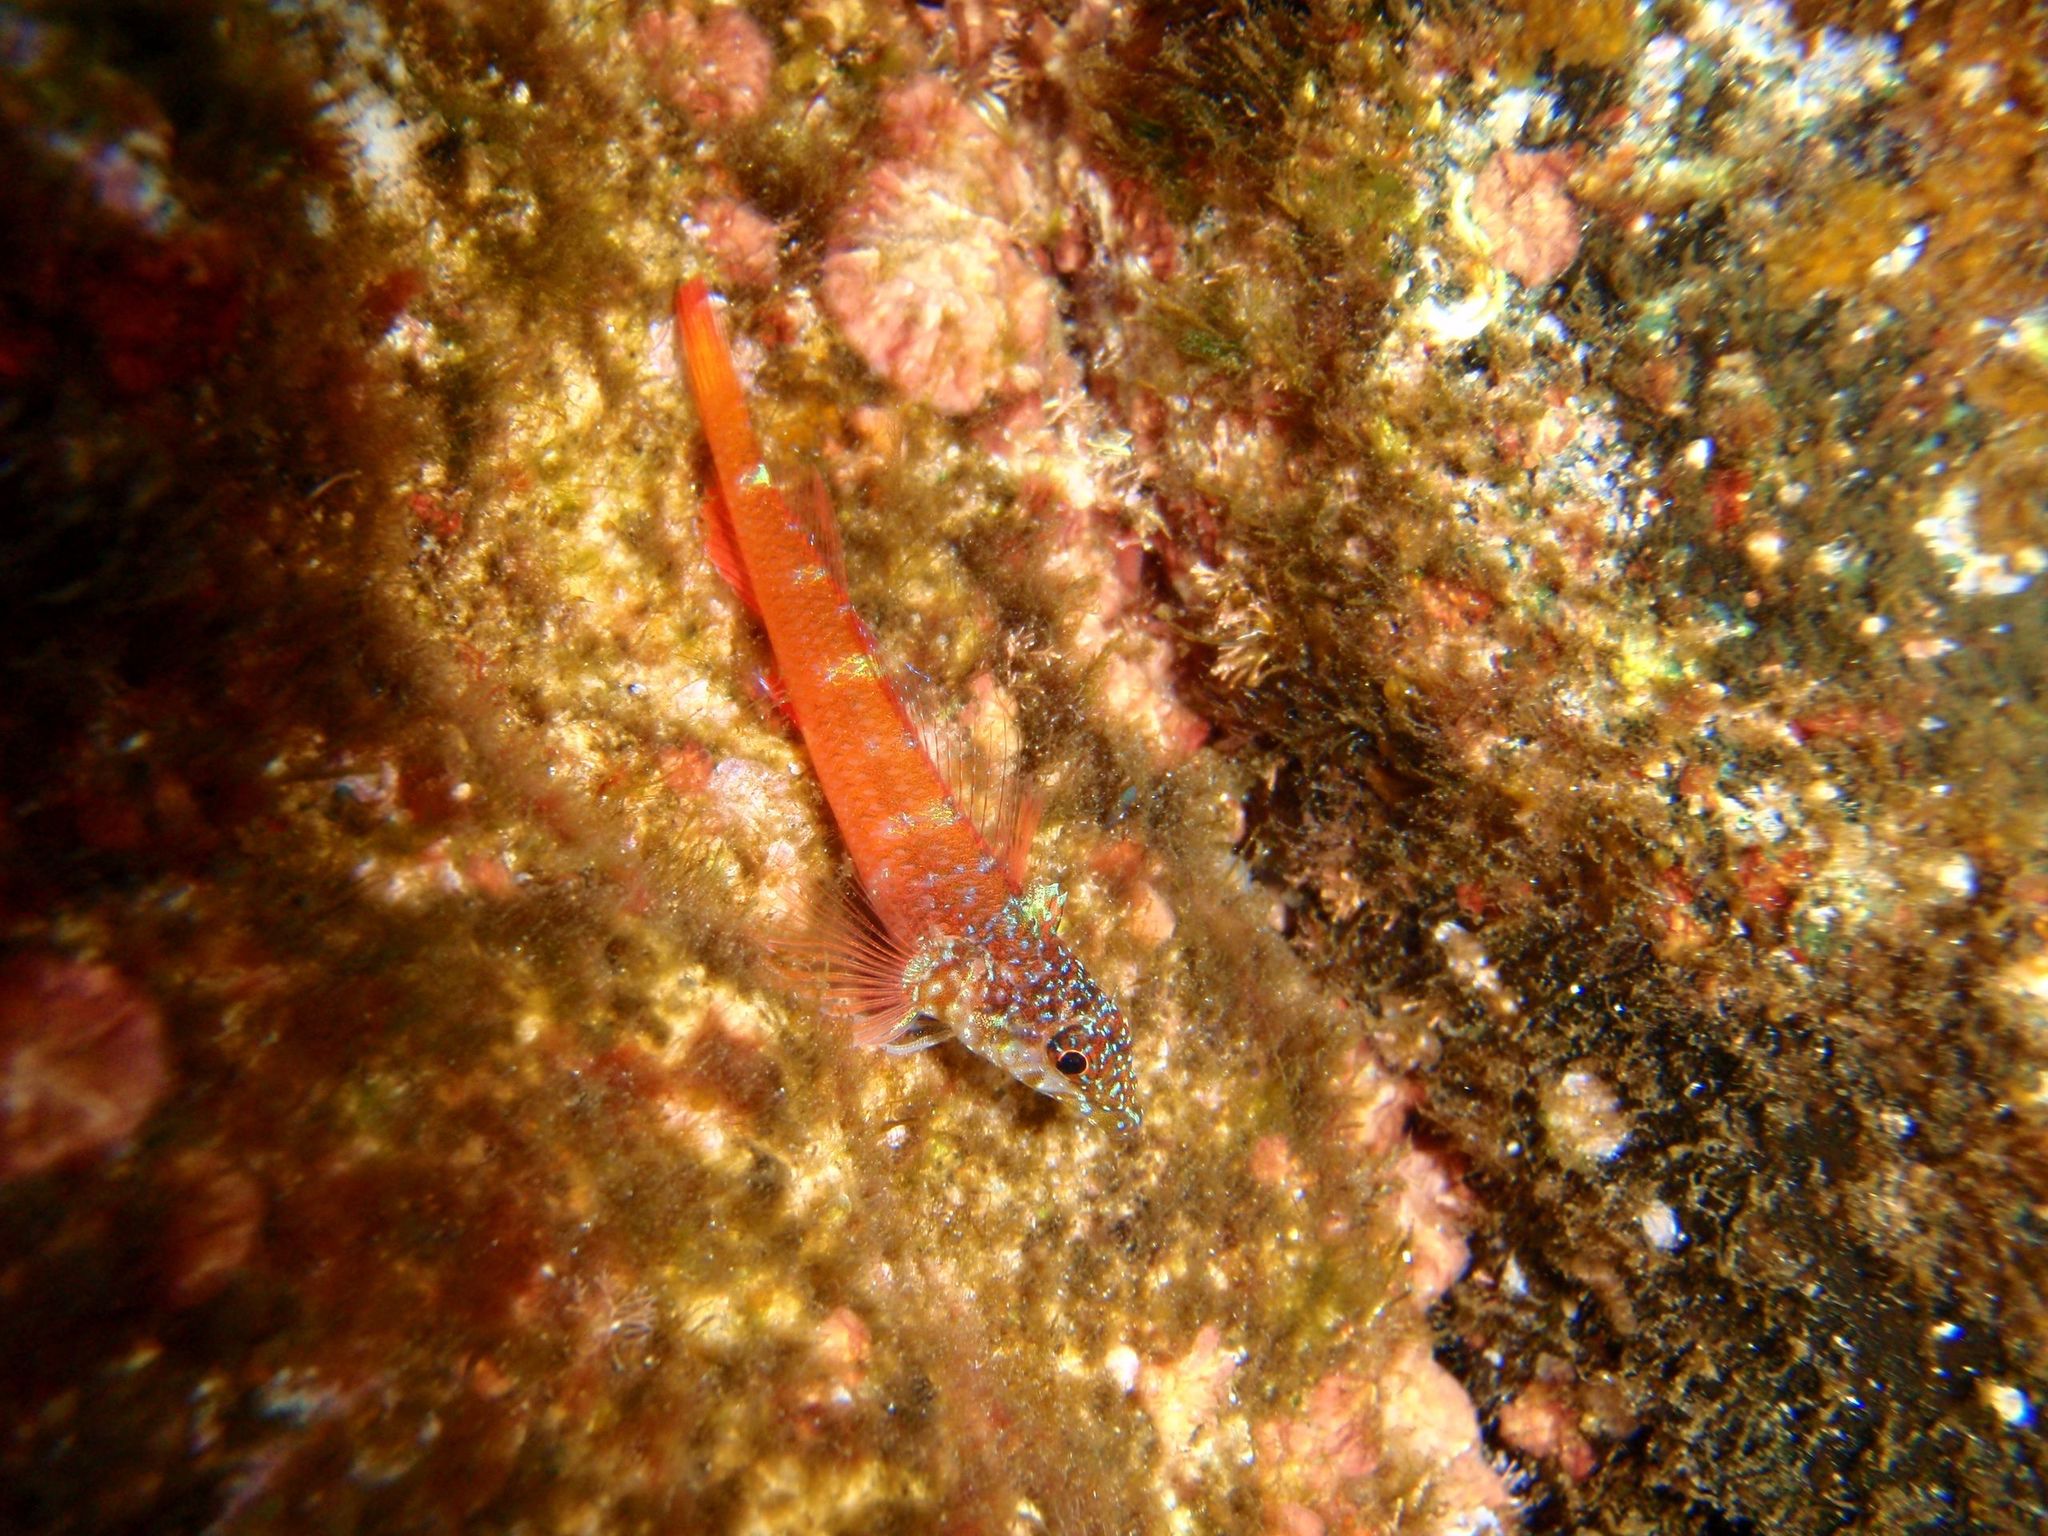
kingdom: Animalia
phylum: Chordata
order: Perciformes
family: Tripterygiidae
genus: Tripterygion
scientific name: Tripterygion melanurum
